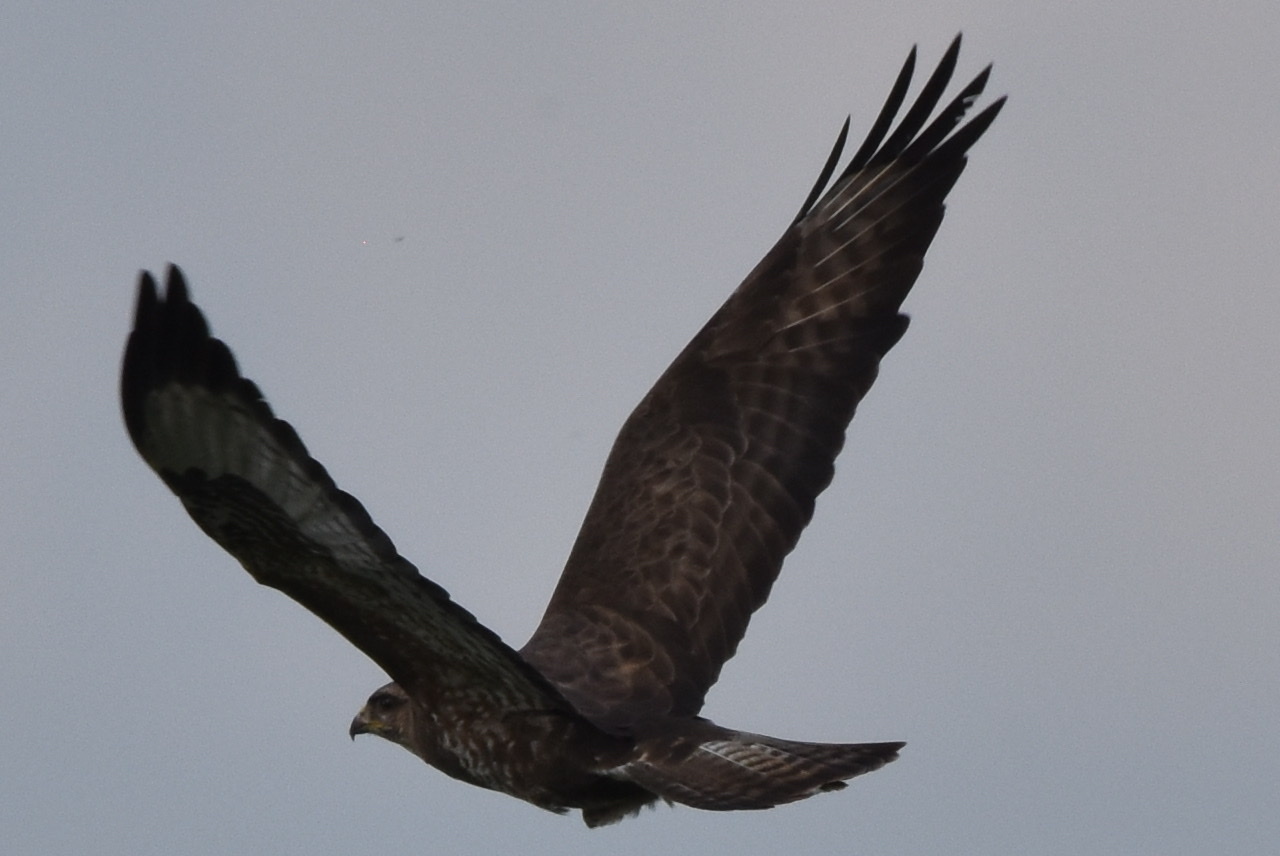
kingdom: Animalia
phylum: Chordata
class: Aves
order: Accipitriformes
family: Accipitridae
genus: Buteo
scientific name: Buteo buteo
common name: Common buzzard
